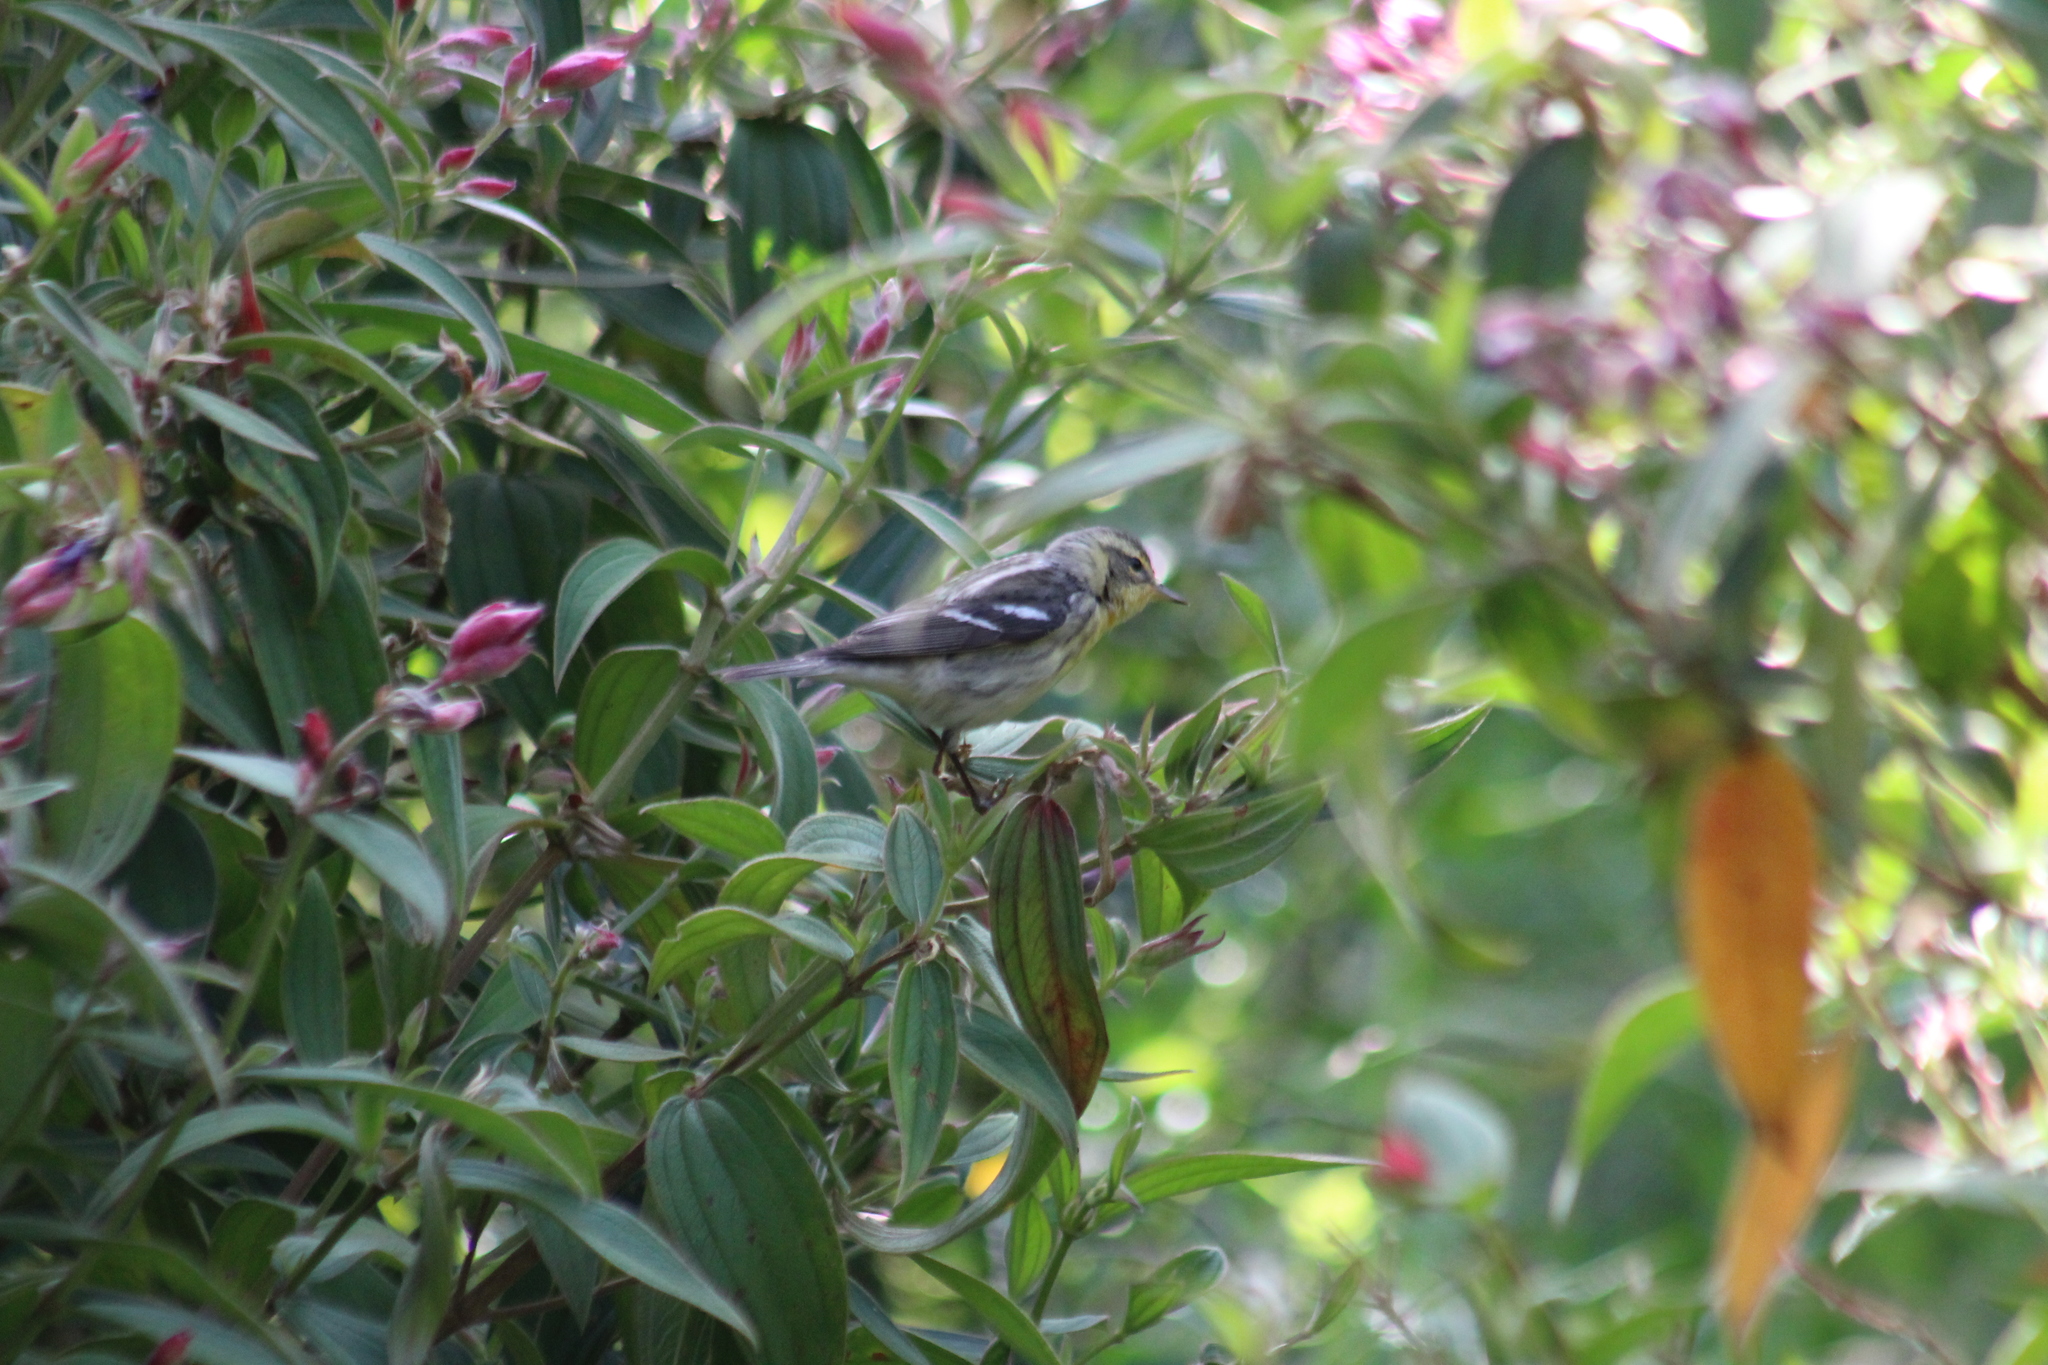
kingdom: Animalia
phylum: Chordata
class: Aves
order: Passeriformes
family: Parulidae
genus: Setophaga
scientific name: Setophaga fusca
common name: Blackburnian warbler
